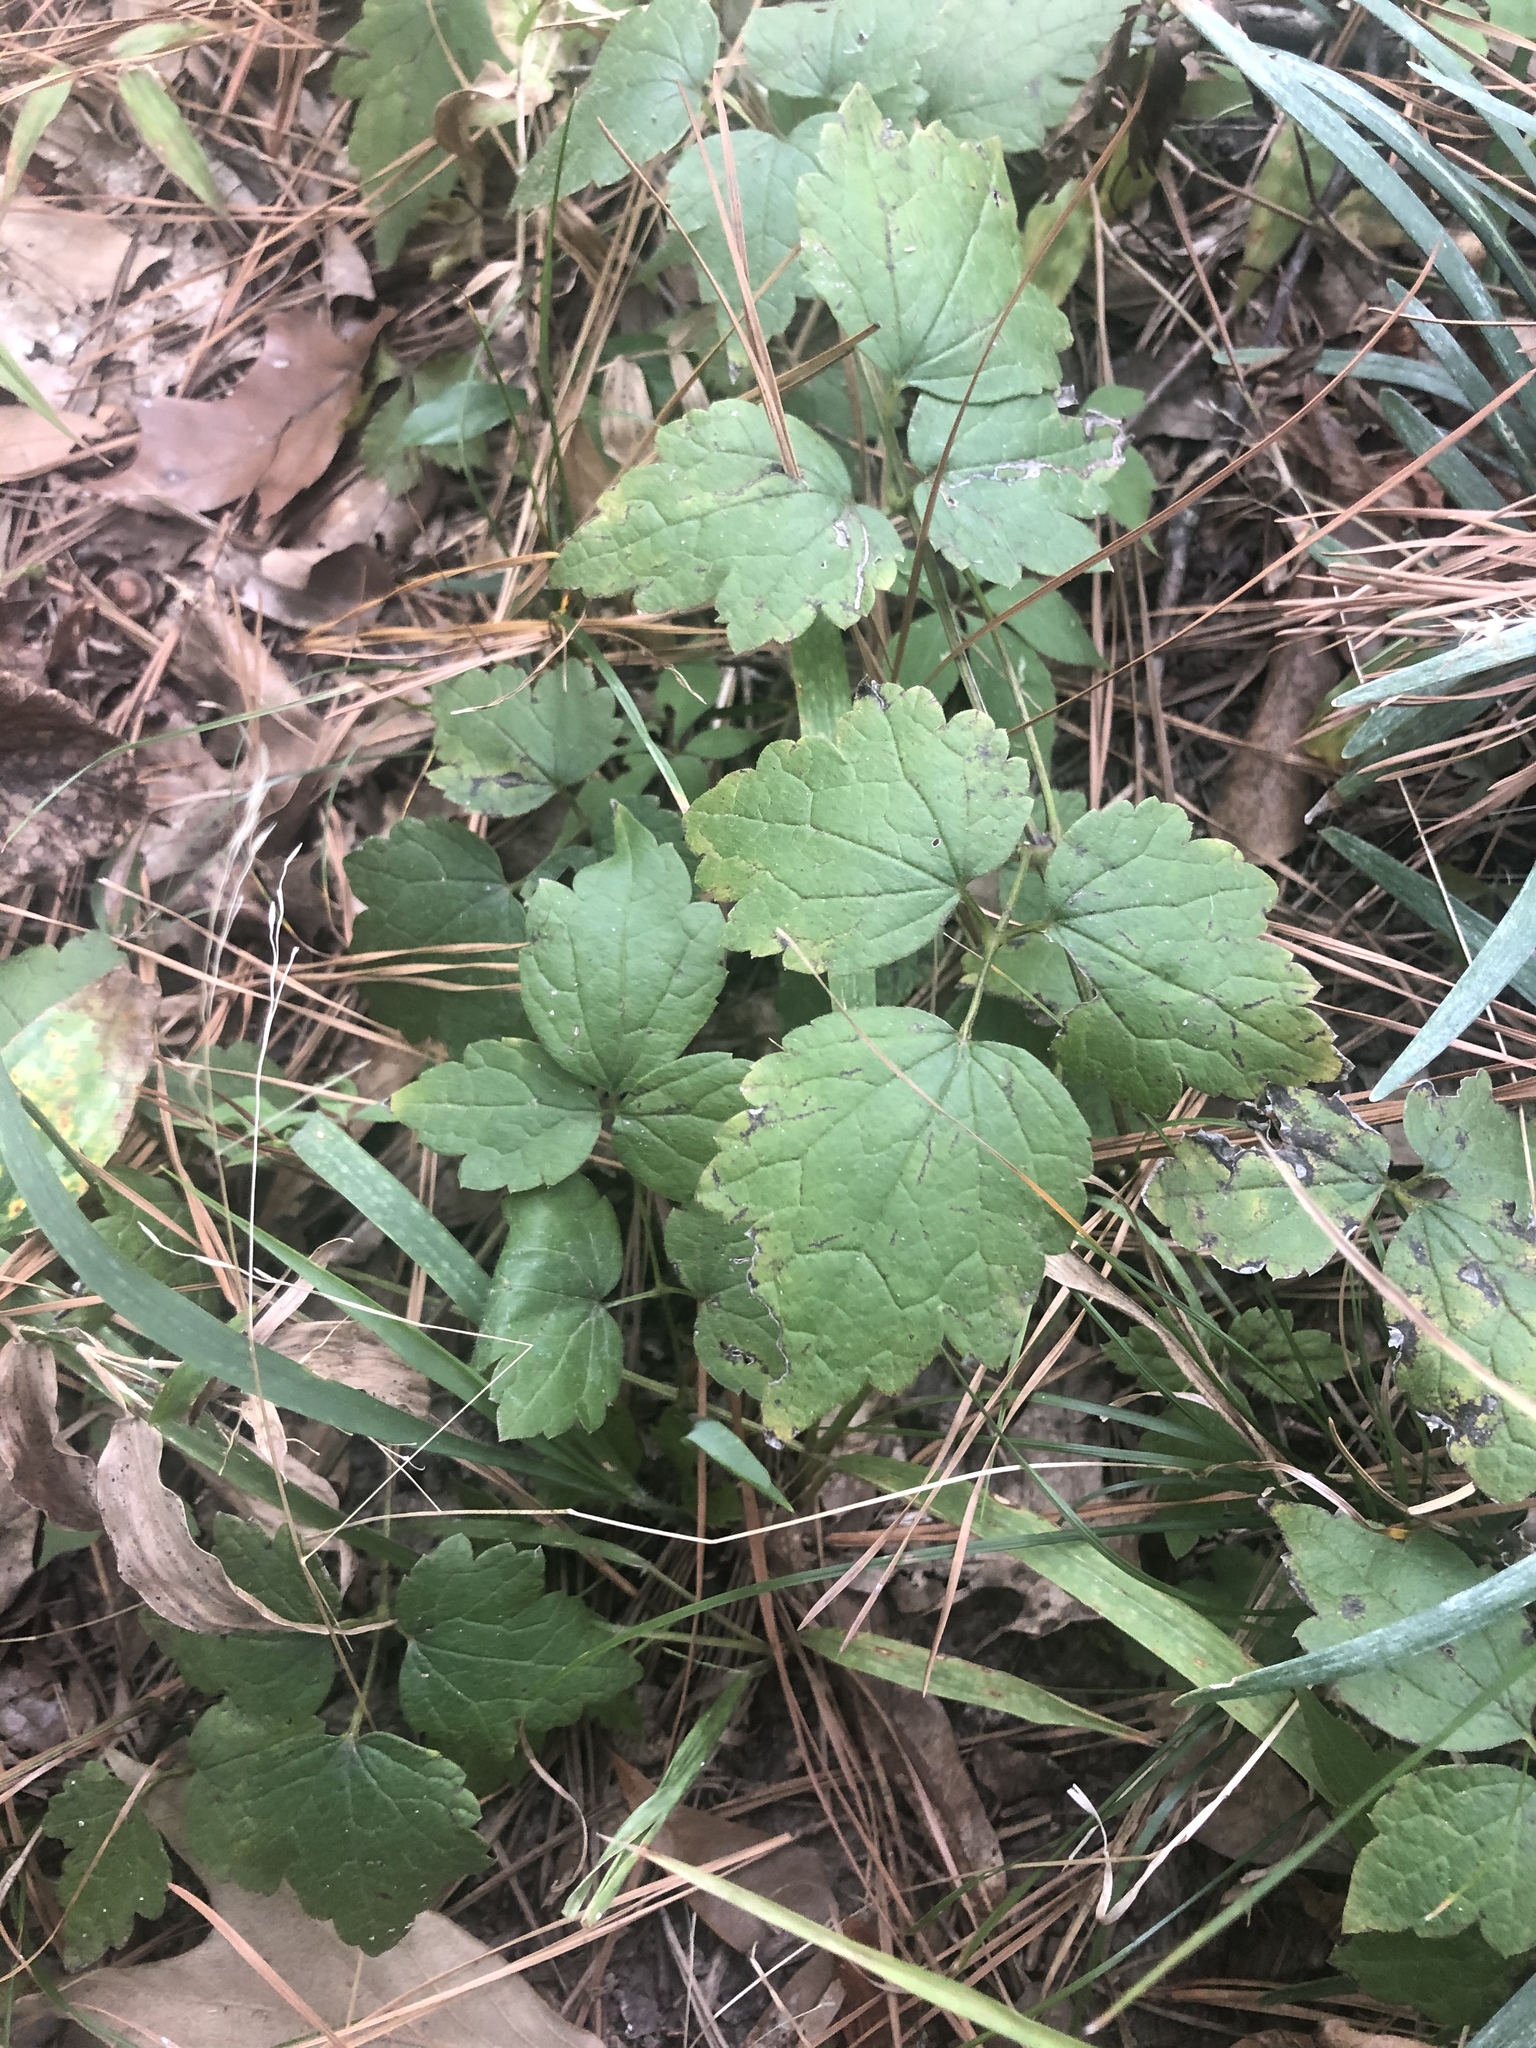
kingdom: Plantae
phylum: Tracheophyta
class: Magnoliopsida
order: Ranunculales
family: Ranunculaceae
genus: Clematis
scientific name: Clematis catesbyana
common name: Virgin's bower
